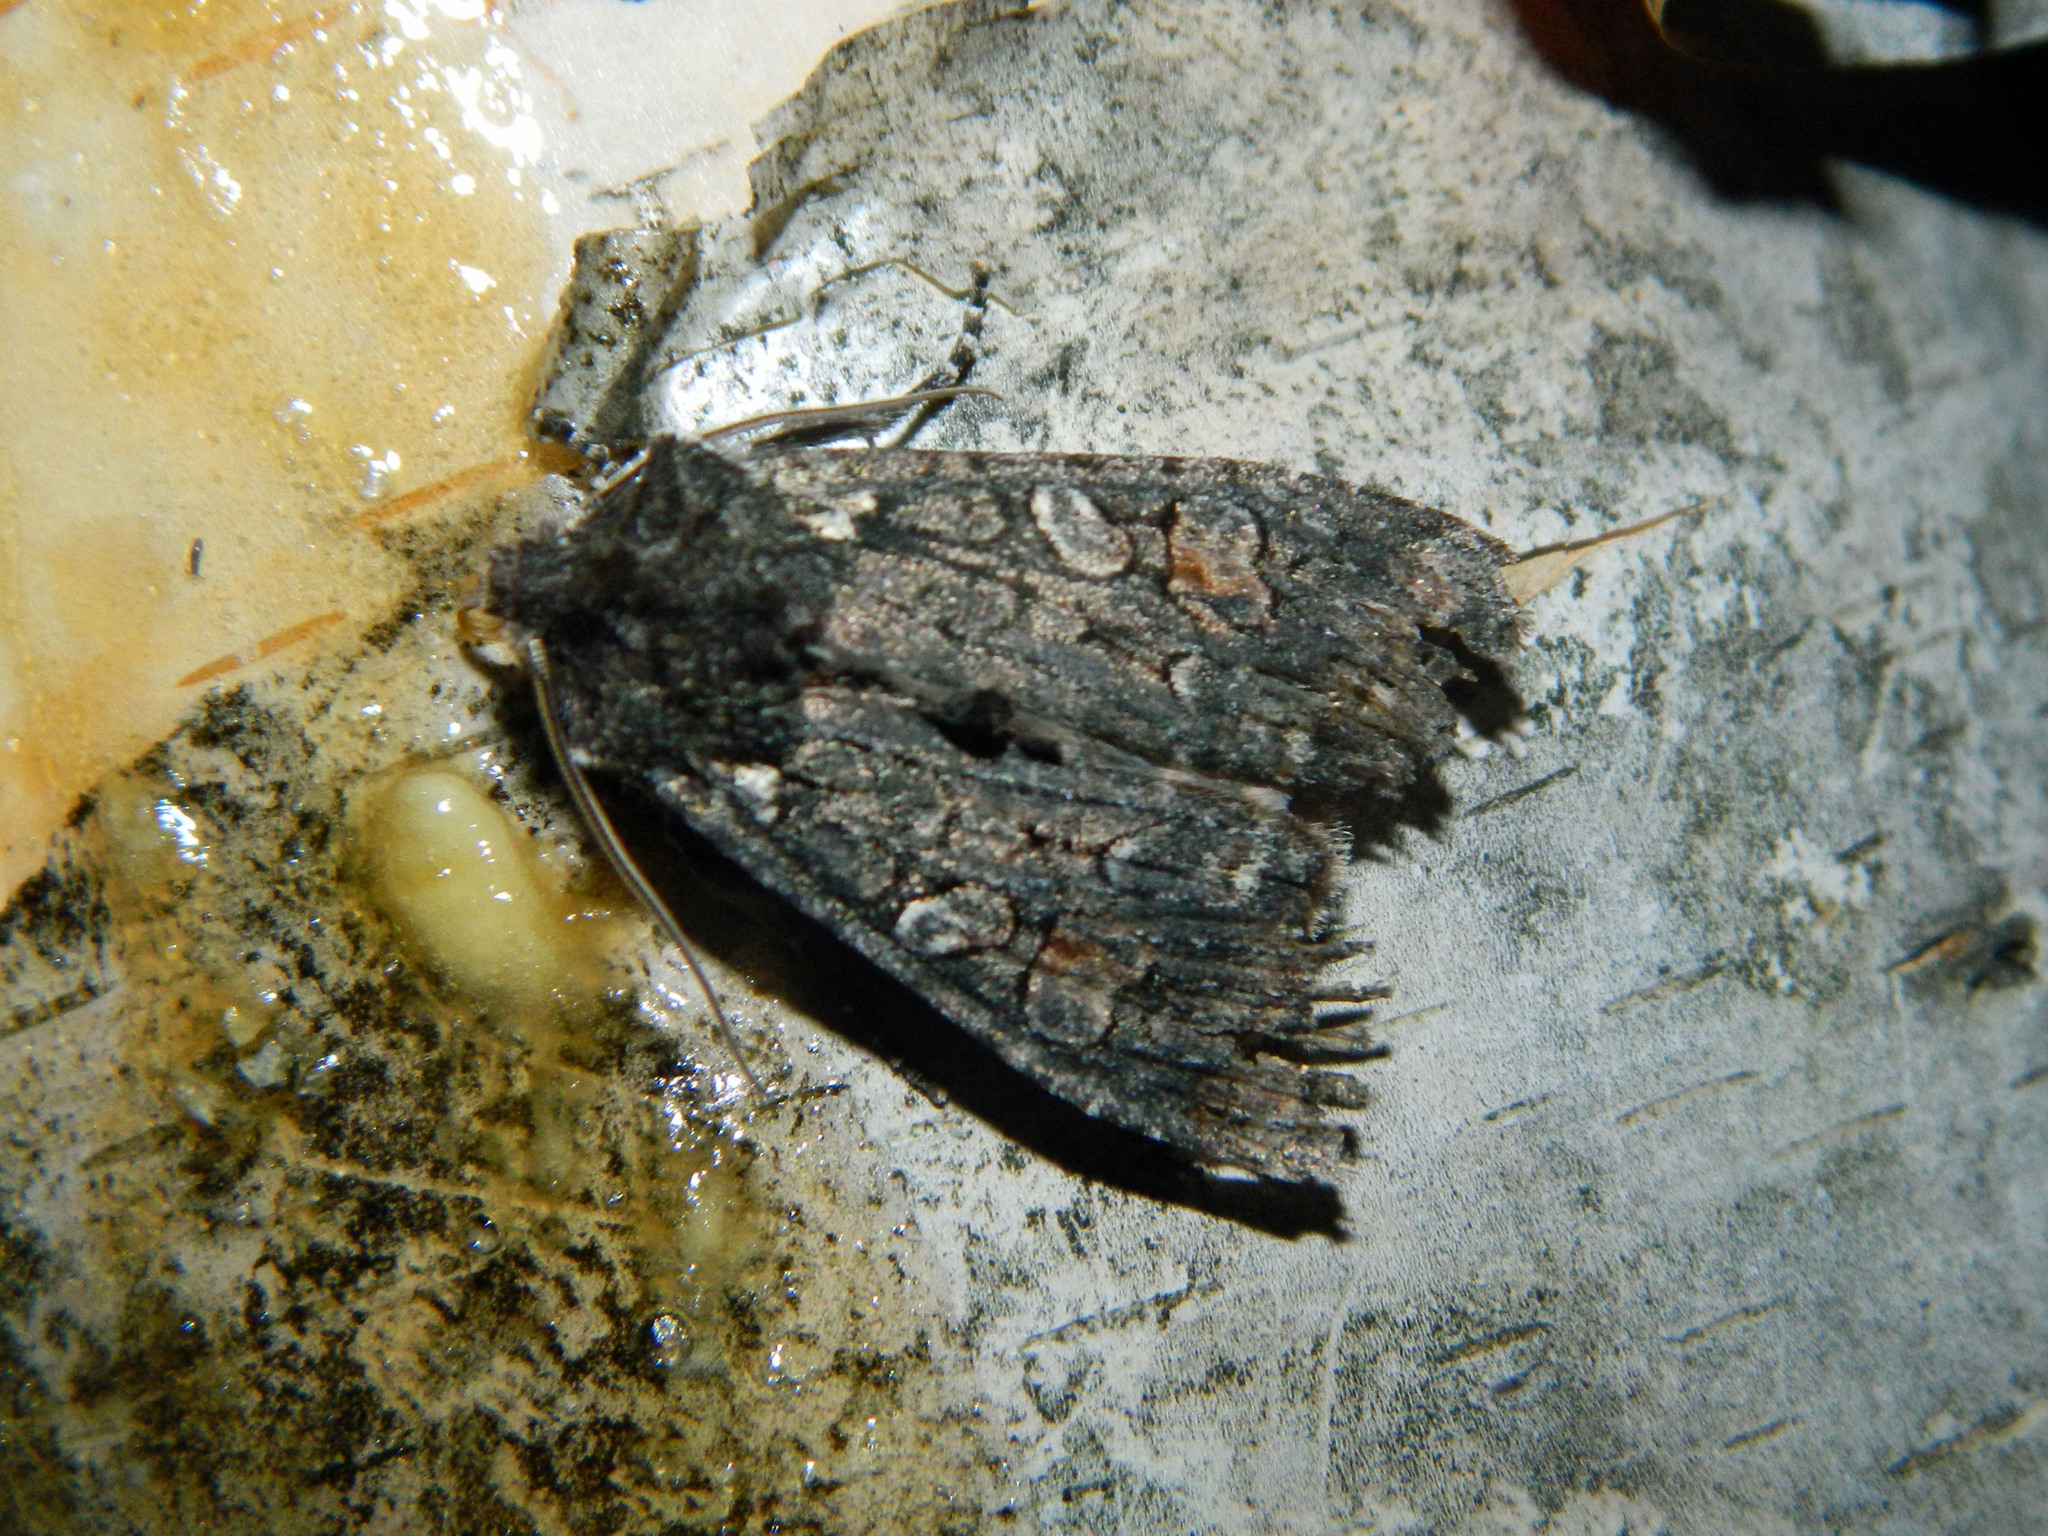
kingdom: Animalia
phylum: Arthropoda
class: Insecta
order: Lepidoptera
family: Noctuidae
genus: Lithophane
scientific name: Lithophane pexata
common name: Plush-naped pinion moth
